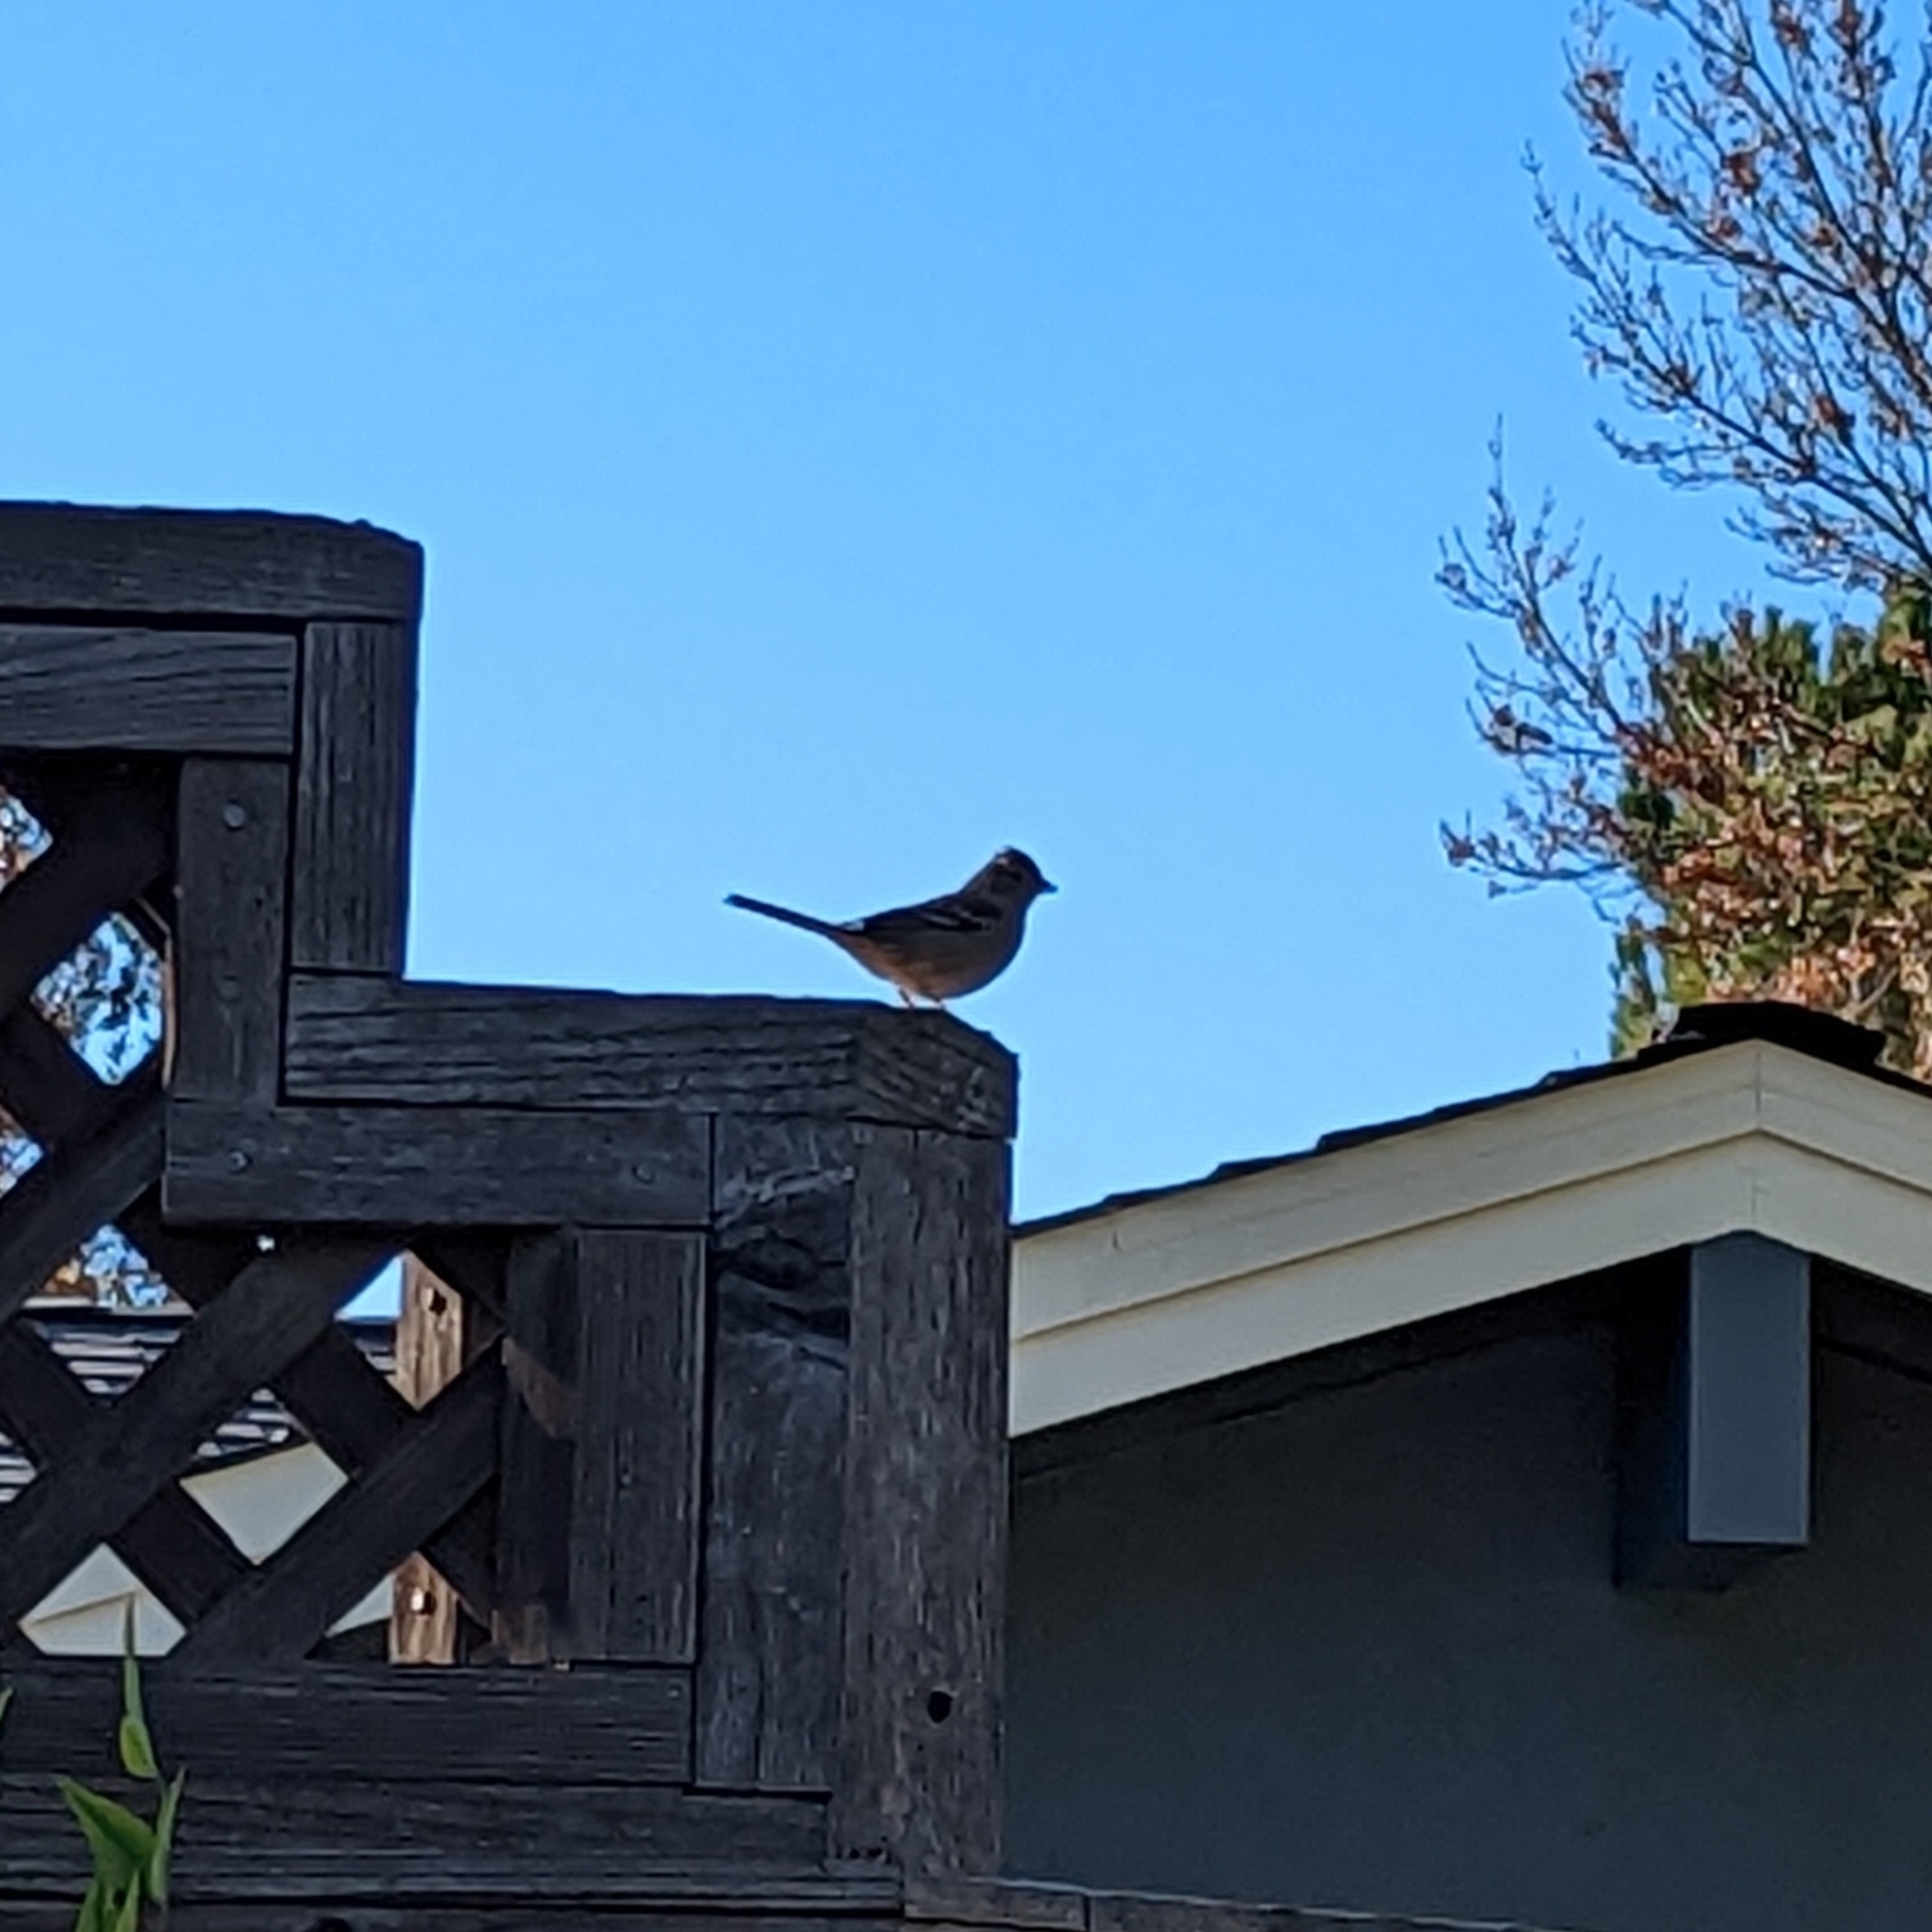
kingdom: Animalia
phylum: Chordata
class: Aves
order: Passeriformes
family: Passerellidae
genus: Zonotrichia
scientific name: Zonotrichia leucophrys
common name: White-crowned sparrow
